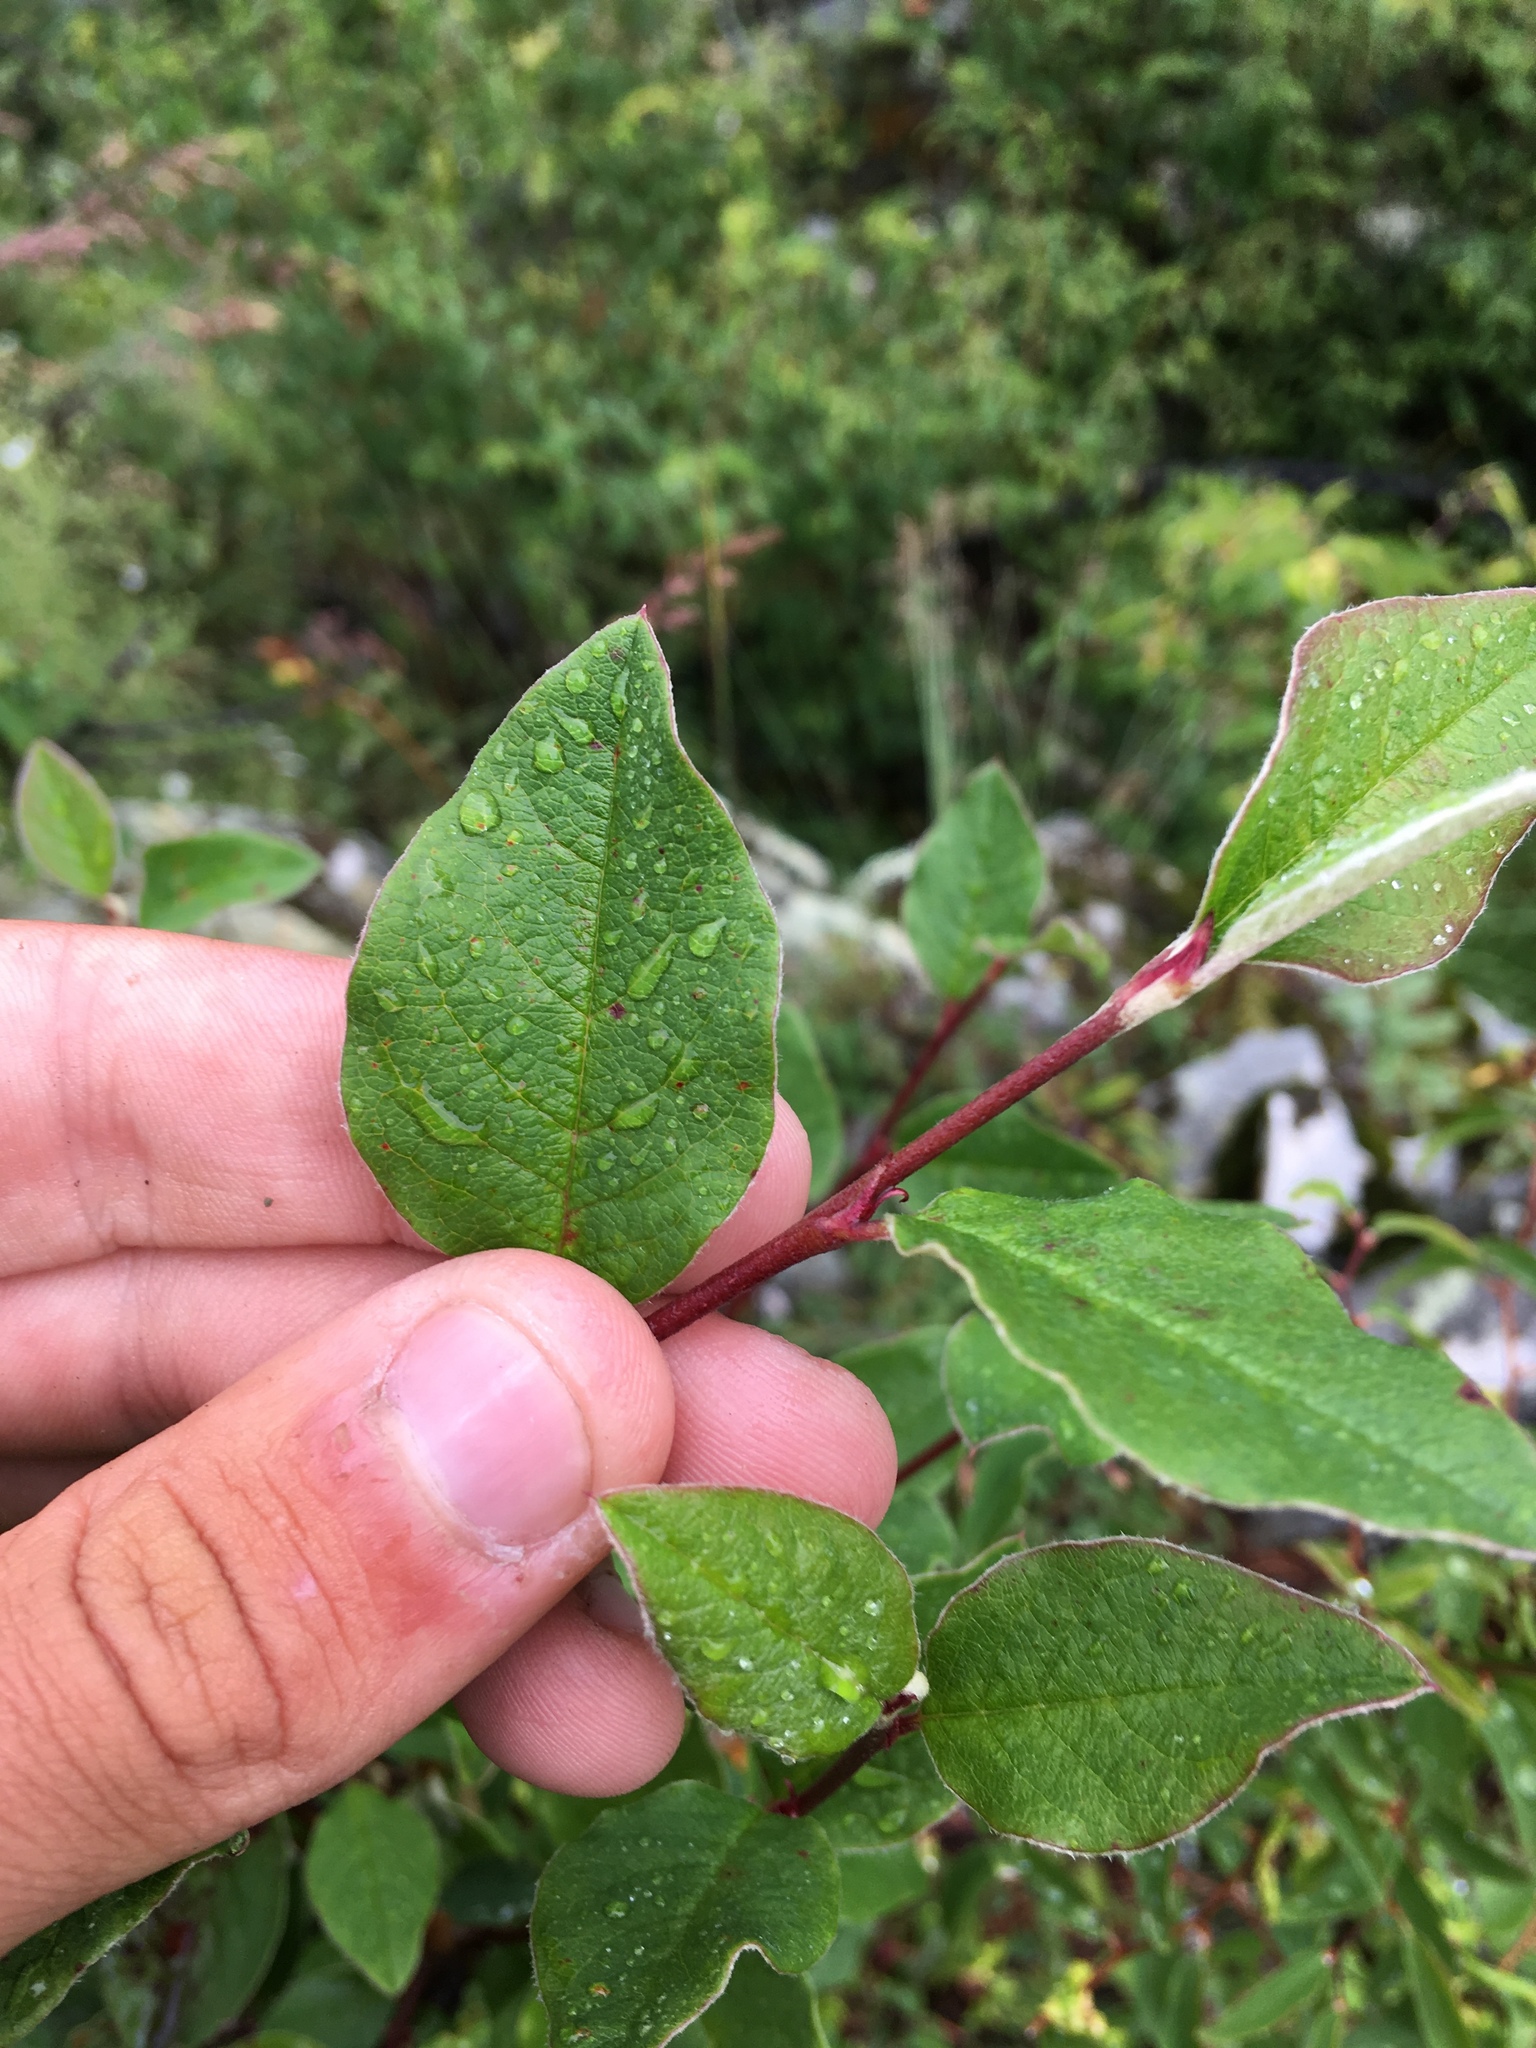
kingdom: Plantae
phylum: Tracheophyta
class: Magnoliopsida
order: Rosales
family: Rosaceae
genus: Cotoneaster
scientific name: Cotoneaster melanocarpus
